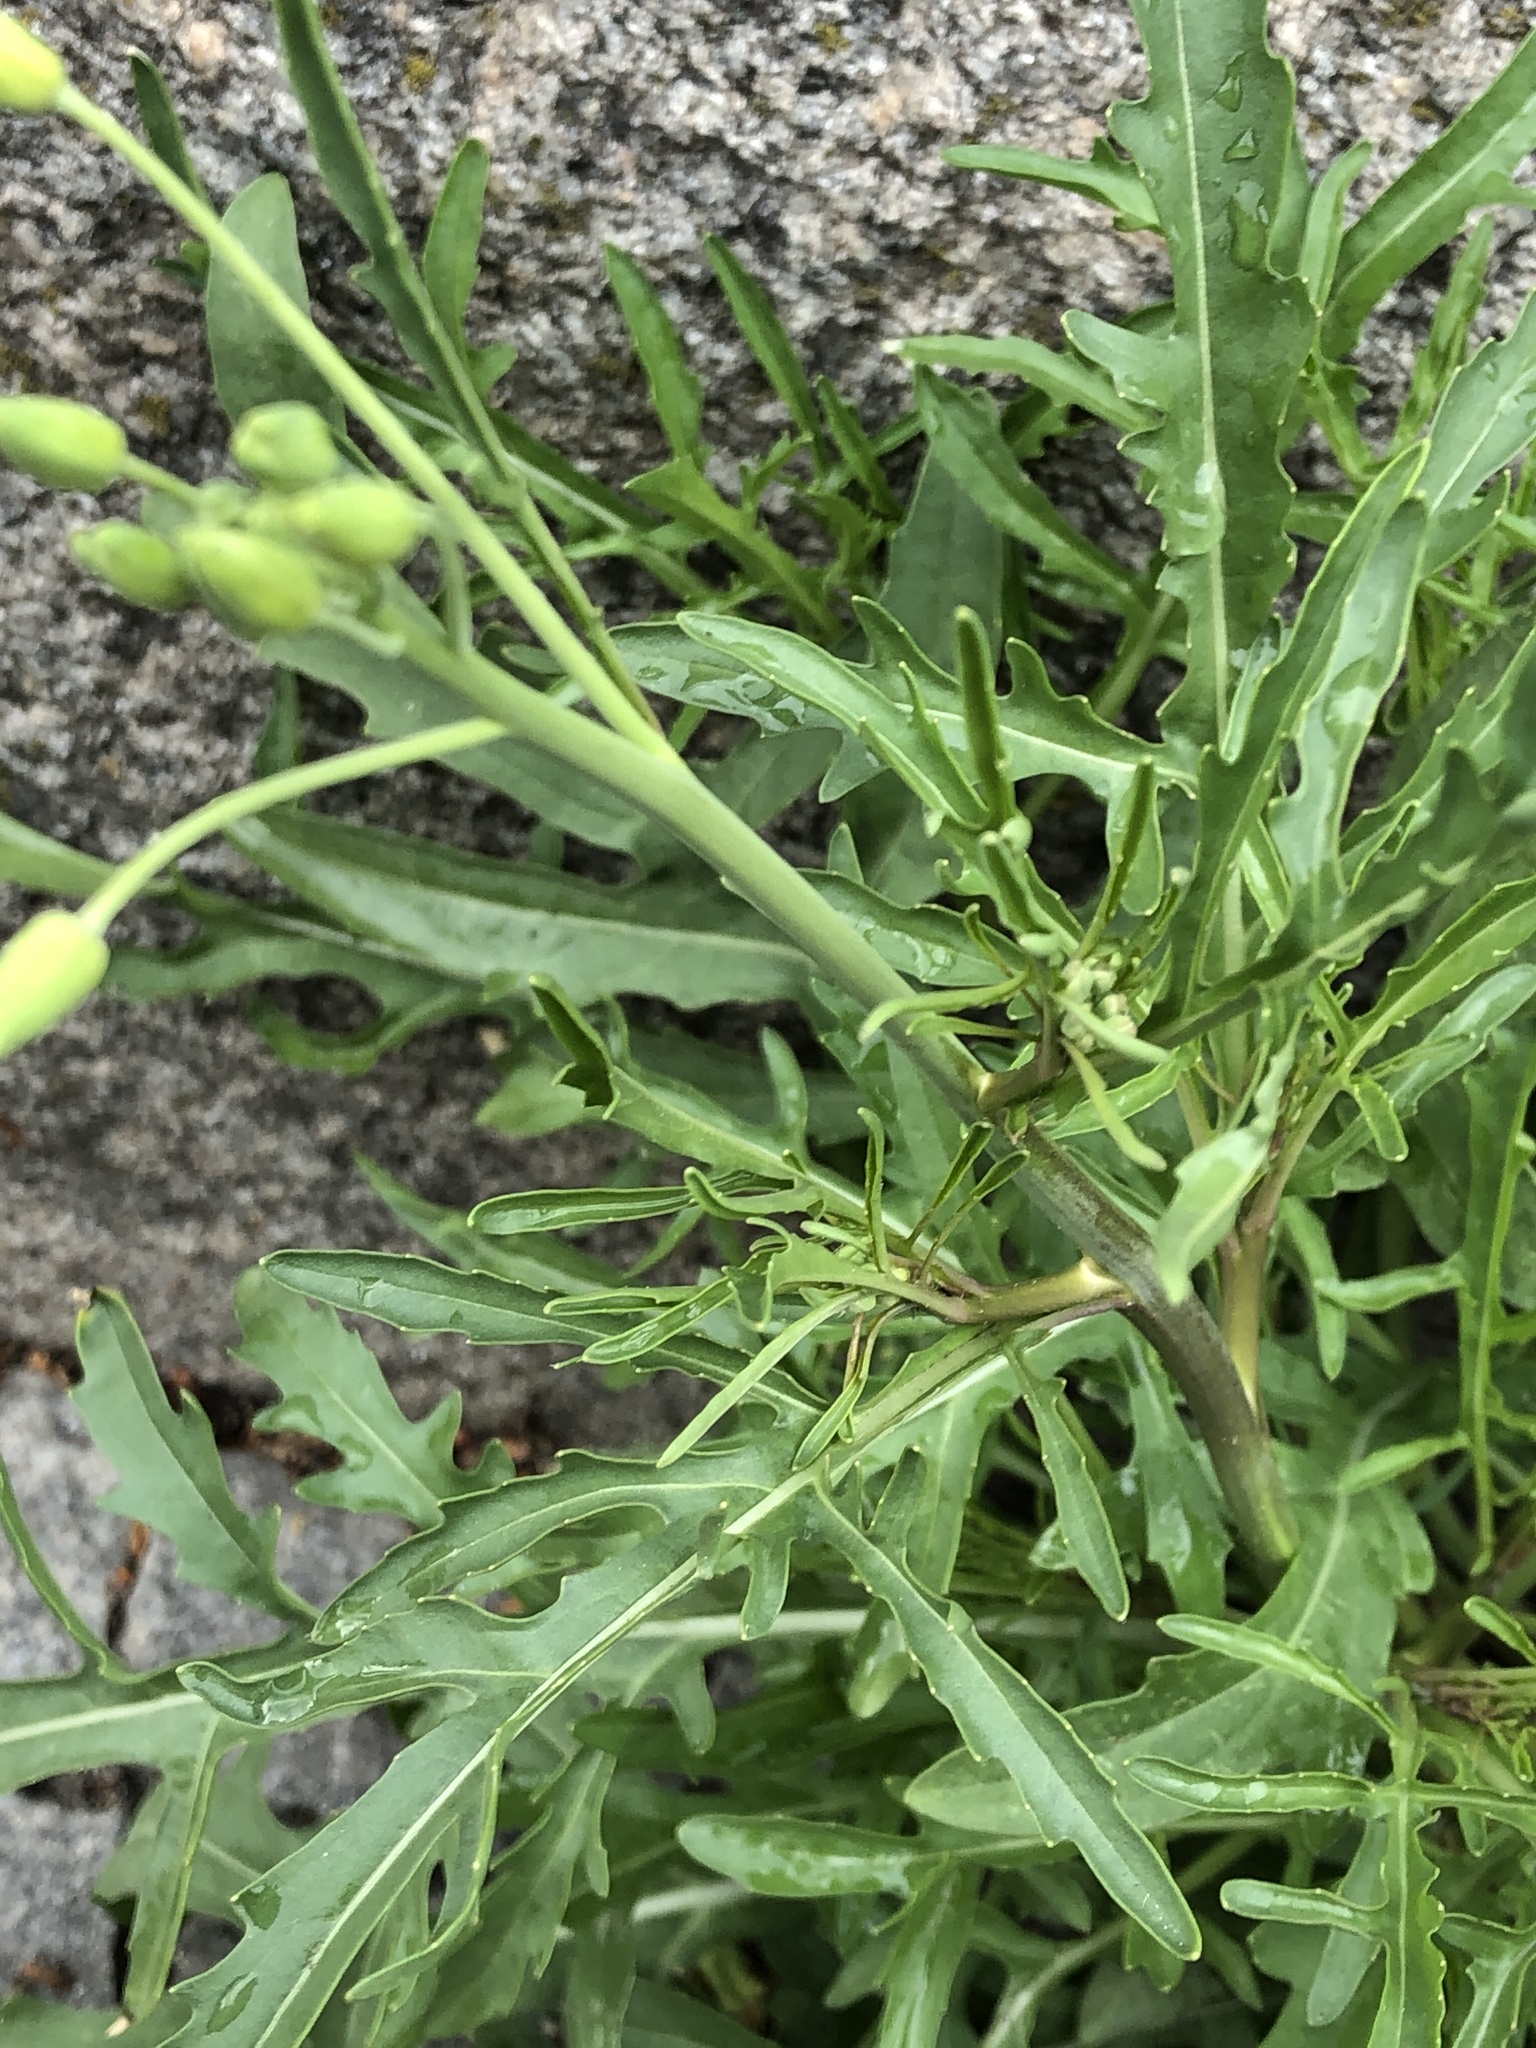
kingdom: Plantae
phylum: Tracheophyta
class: Magnoliopsida
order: Brassicales
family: Brassicaceae
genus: Diplotaxis
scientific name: Diplotaxis tenuifolia
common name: Perennial wall-rocket
